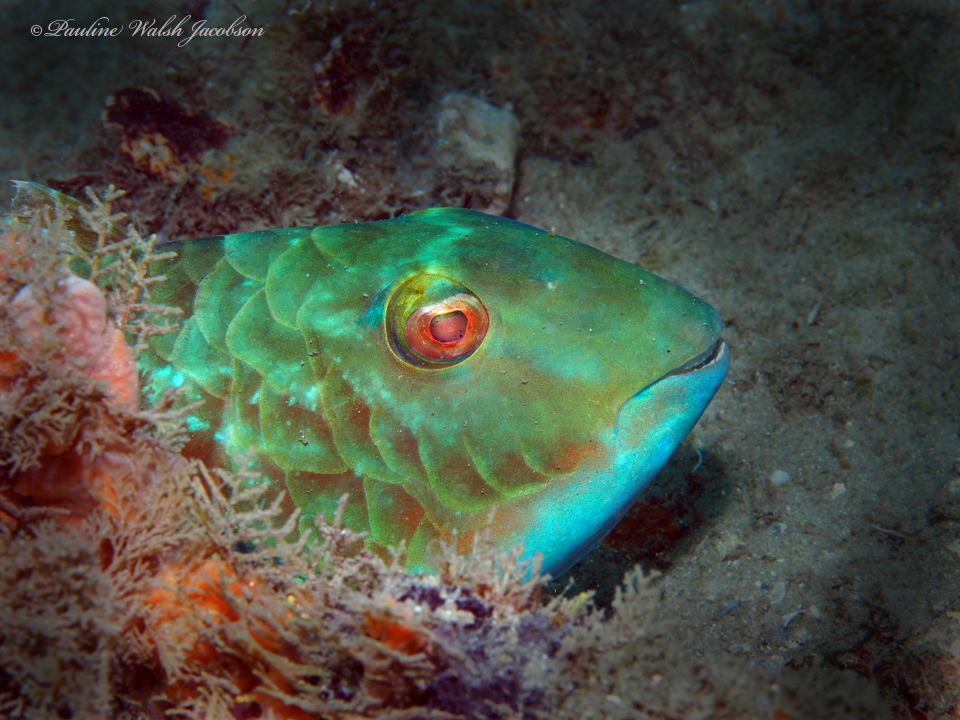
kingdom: Animalia
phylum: Chordata
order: Perciformes
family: Scaridae
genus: Sparisoma
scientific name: Sparisoma chrysopterum
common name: Redtail parrotfish
